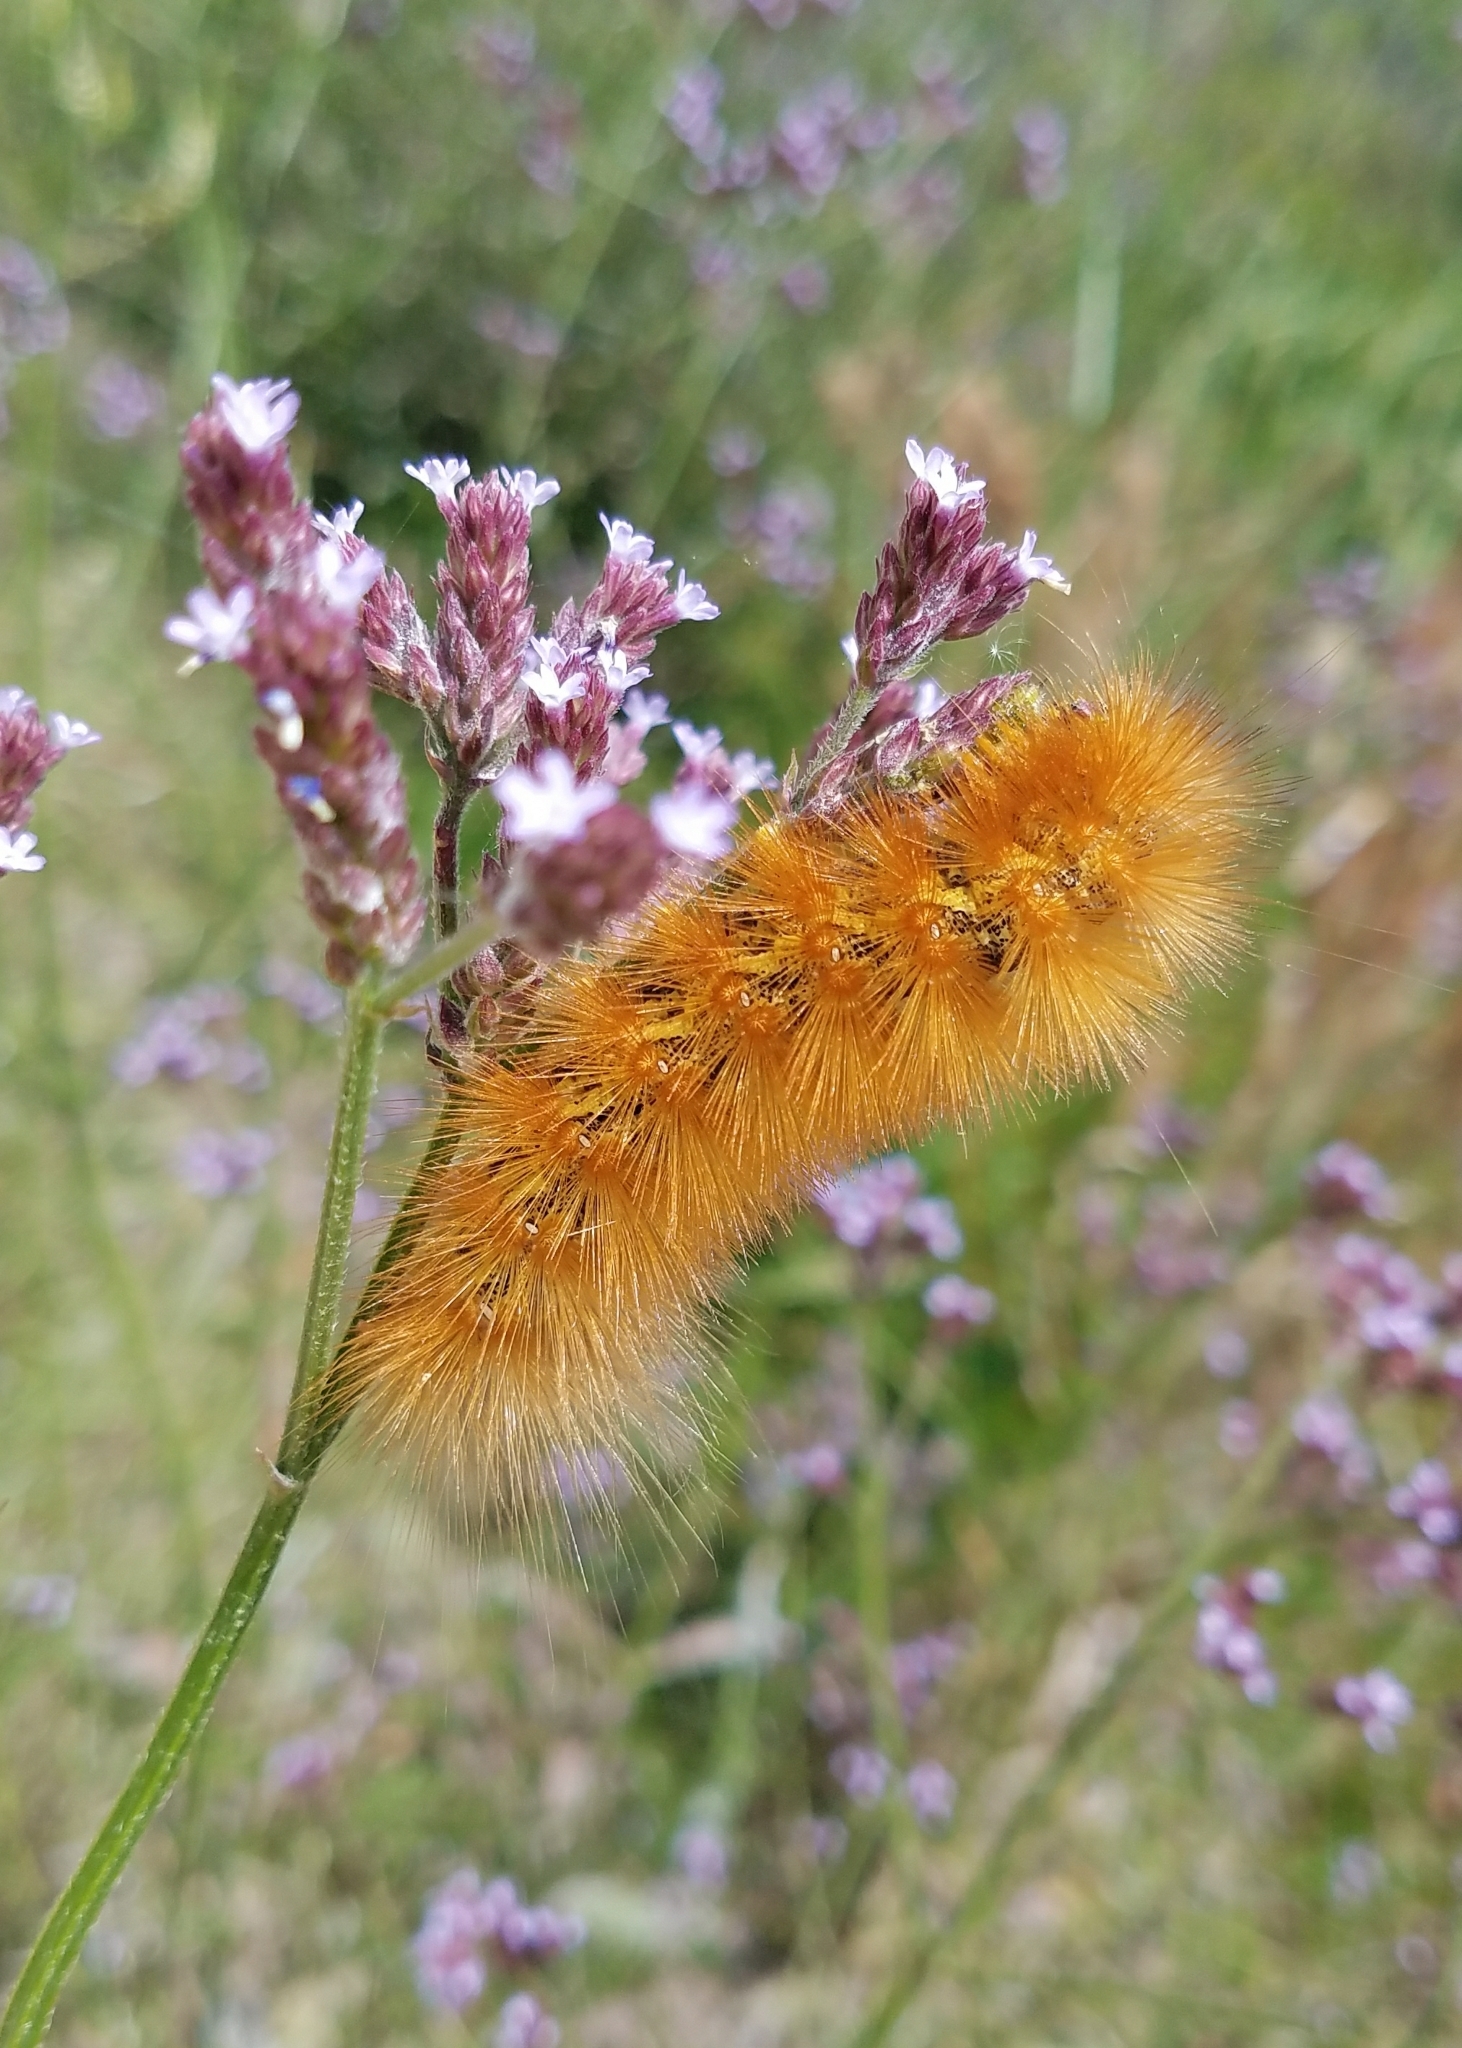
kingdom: Animalia
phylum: Arthropoda
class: Insecta
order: Lepidoptera
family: Erebidae
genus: Estigmene
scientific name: Estigmene acrea
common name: Salt marsh moth
